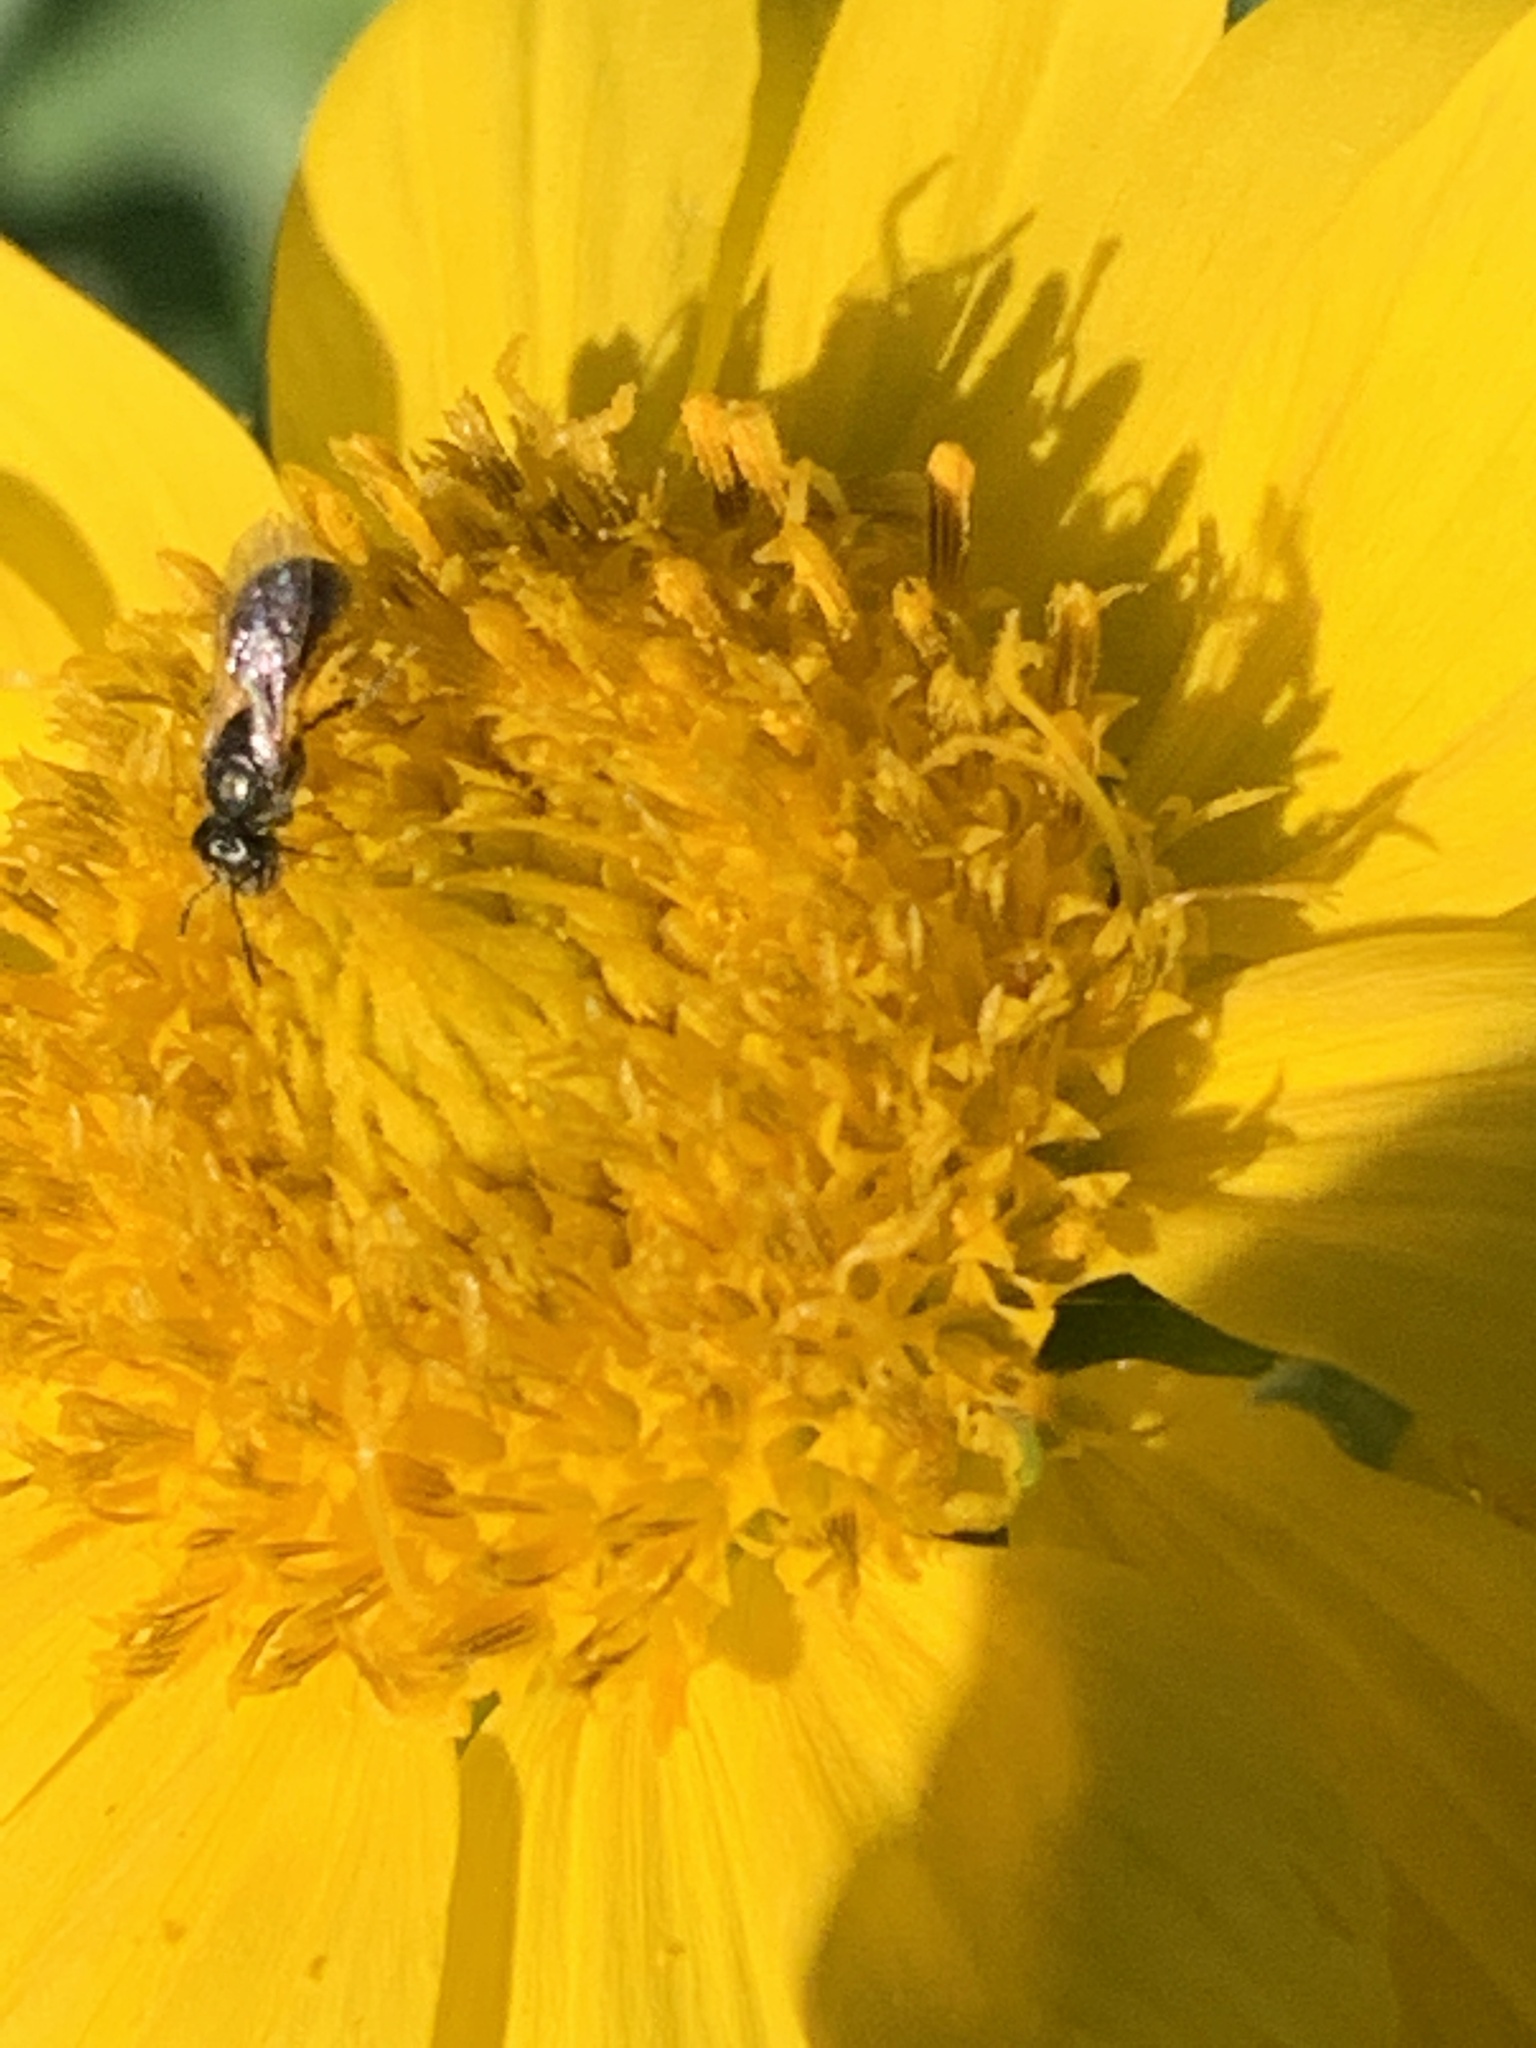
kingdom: Animalia
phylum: Arthropoda
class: Insecta
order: Hymenoptera
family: Halictidae
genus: Dialictus
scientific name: Dialictus
